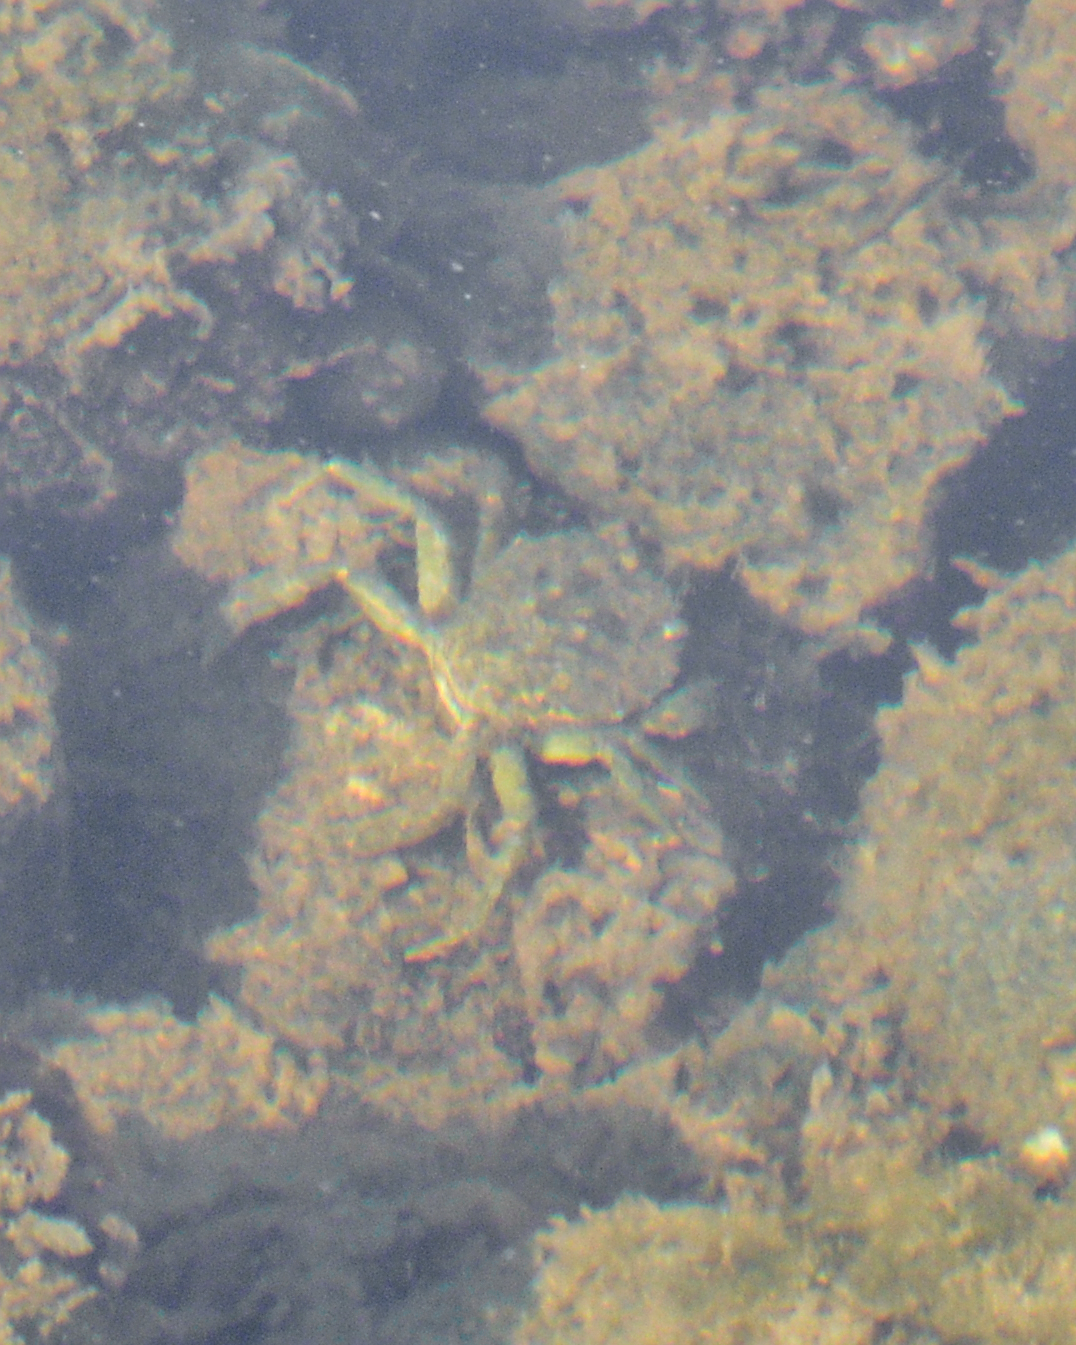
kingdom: Animalia
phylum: Arthropoda
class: Malacostraca
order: Decapoda
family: Carcinidae
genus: Carcinus
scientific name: Carcinus maenas
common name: European green crab
